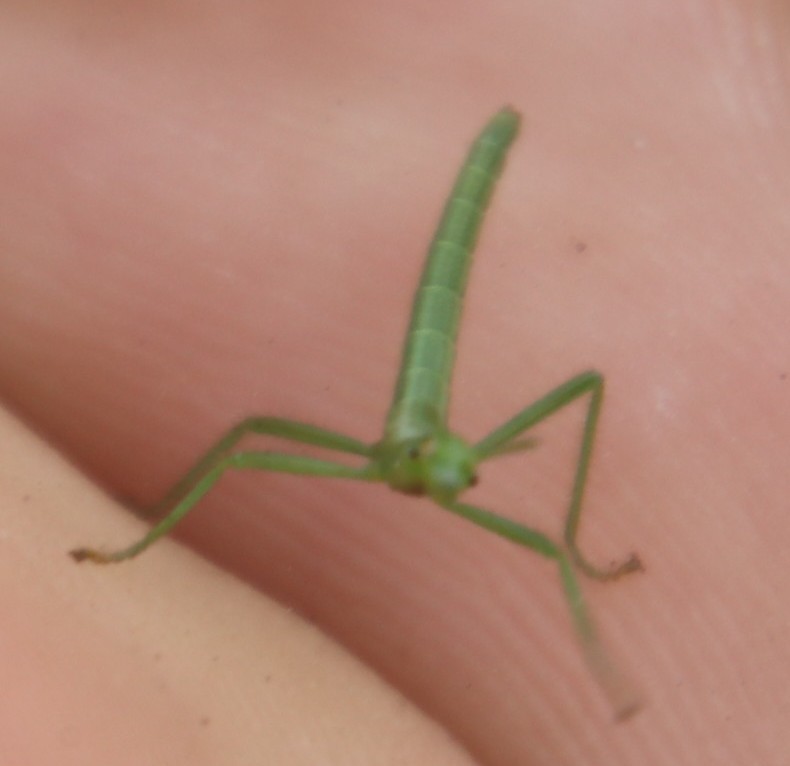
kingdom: Animalia
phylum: Arthropoda
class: Insecta
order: Phasmida
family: Bacillidae
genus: Macynia
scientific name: Macynia labiata
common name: Thunberg's stick insect
